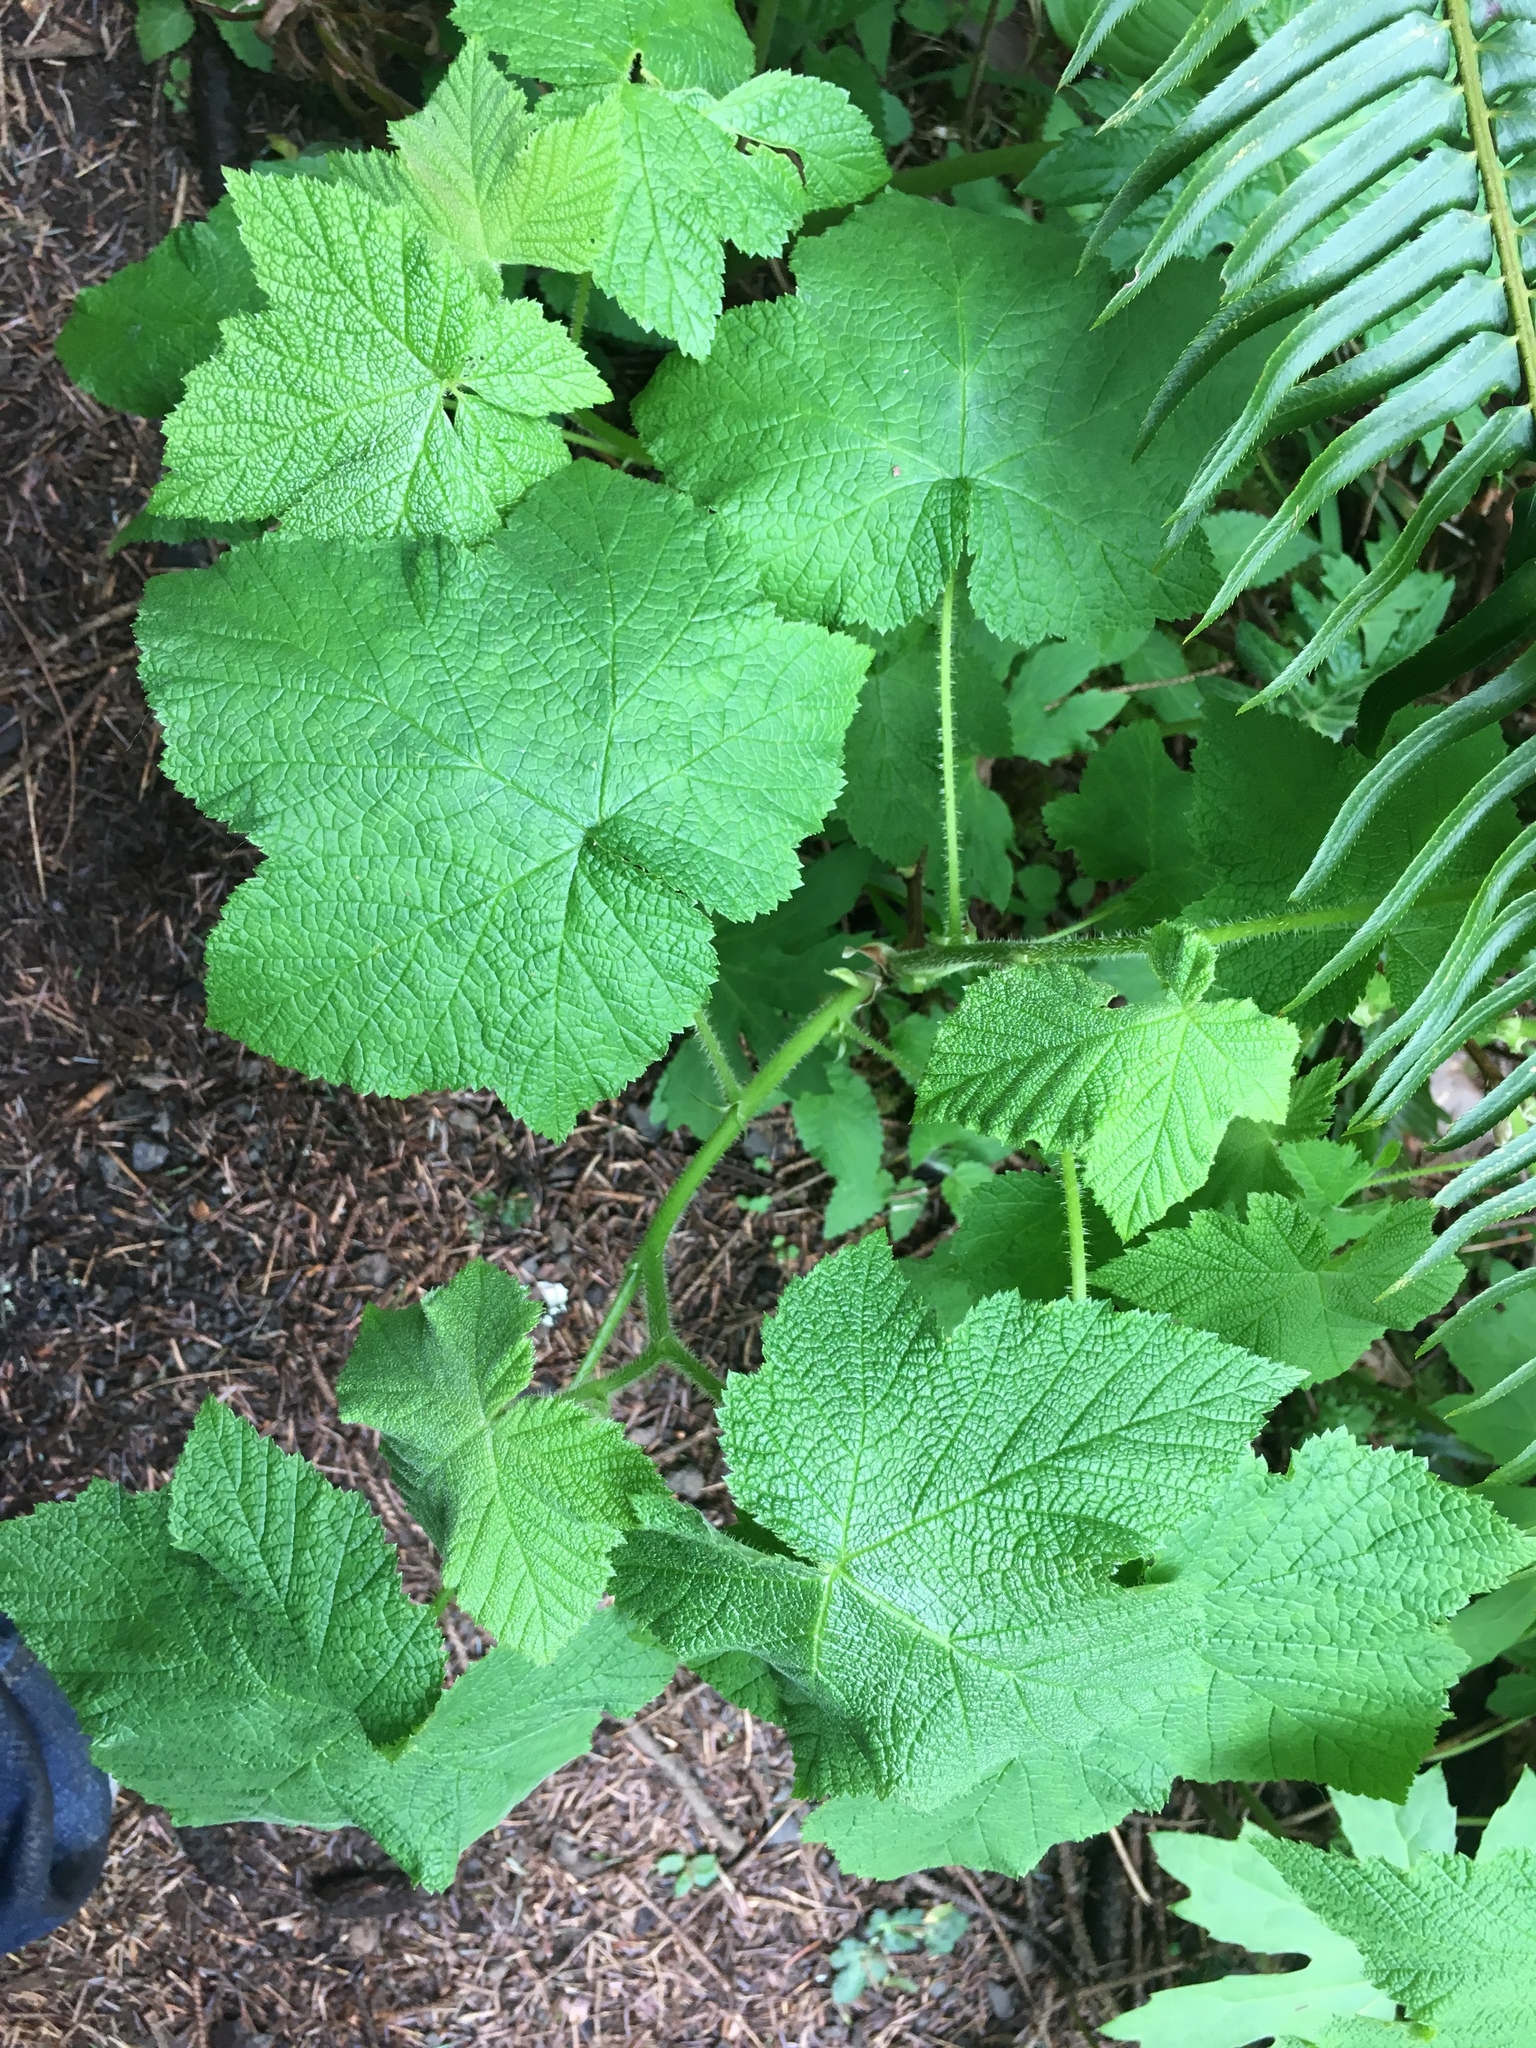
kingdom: Plantae
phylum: Tracheophyta
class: Magnoliopsida
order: Rosales
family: Rosaceae
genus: Rubus
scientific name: Rubus parviflorus
